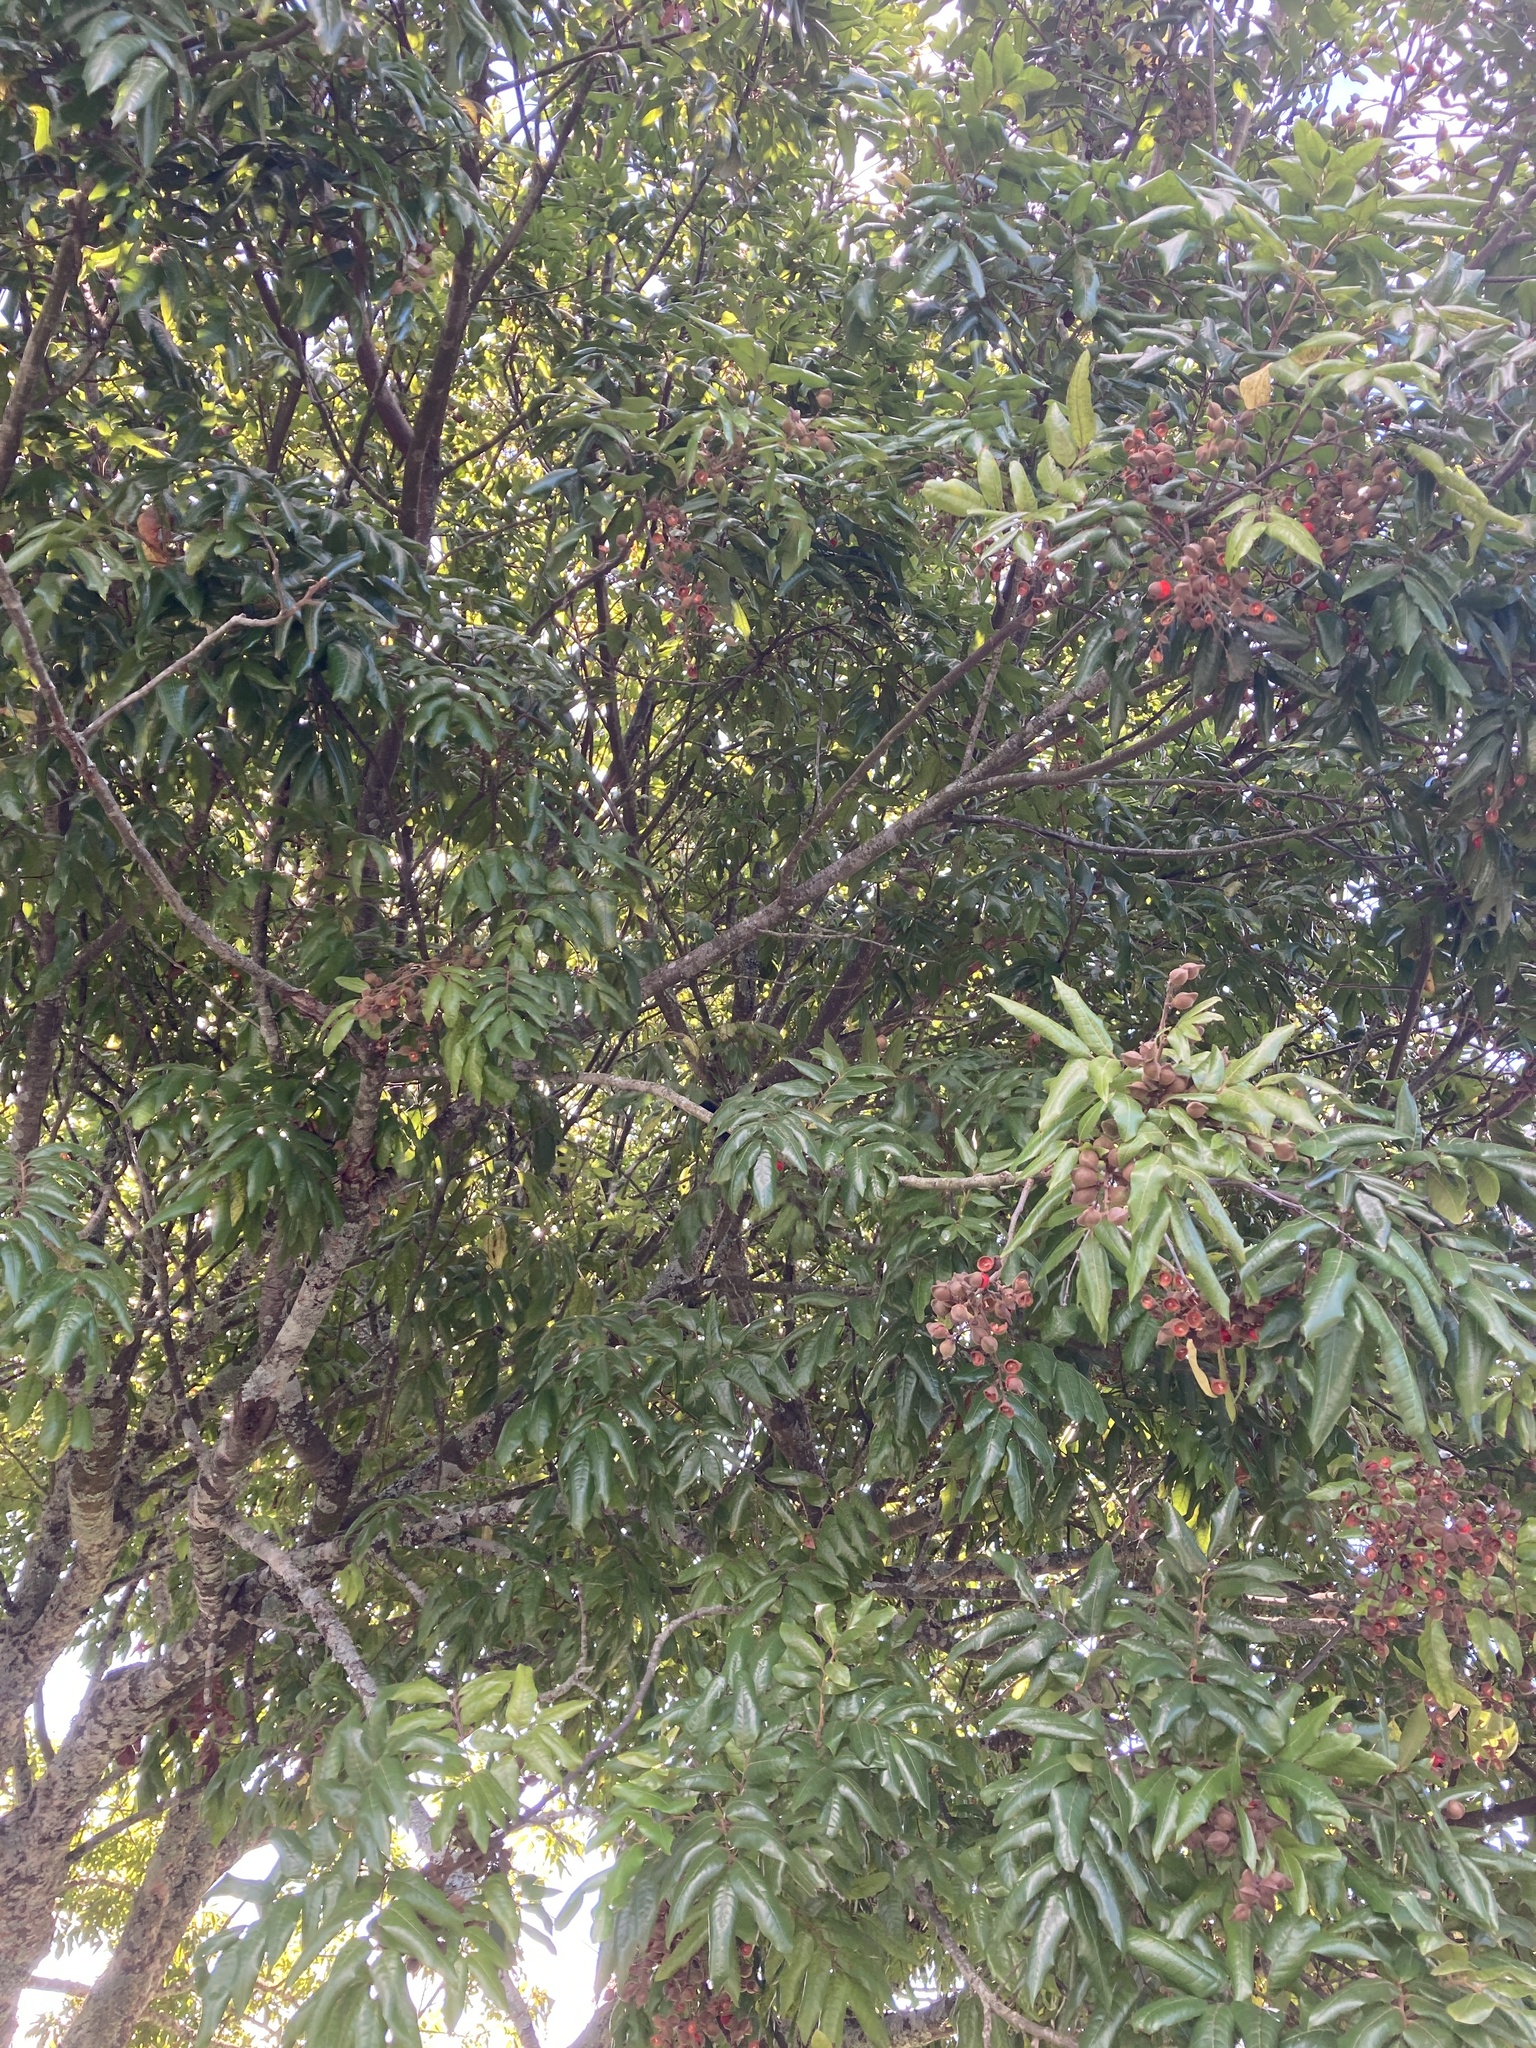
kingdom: Plantae
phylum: Tracheophyta
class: Magnoliopsida
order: Sapindales
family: Sapindaceae
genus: Alectryon
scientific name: Alectryon excelsus
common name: Three kings titoki
